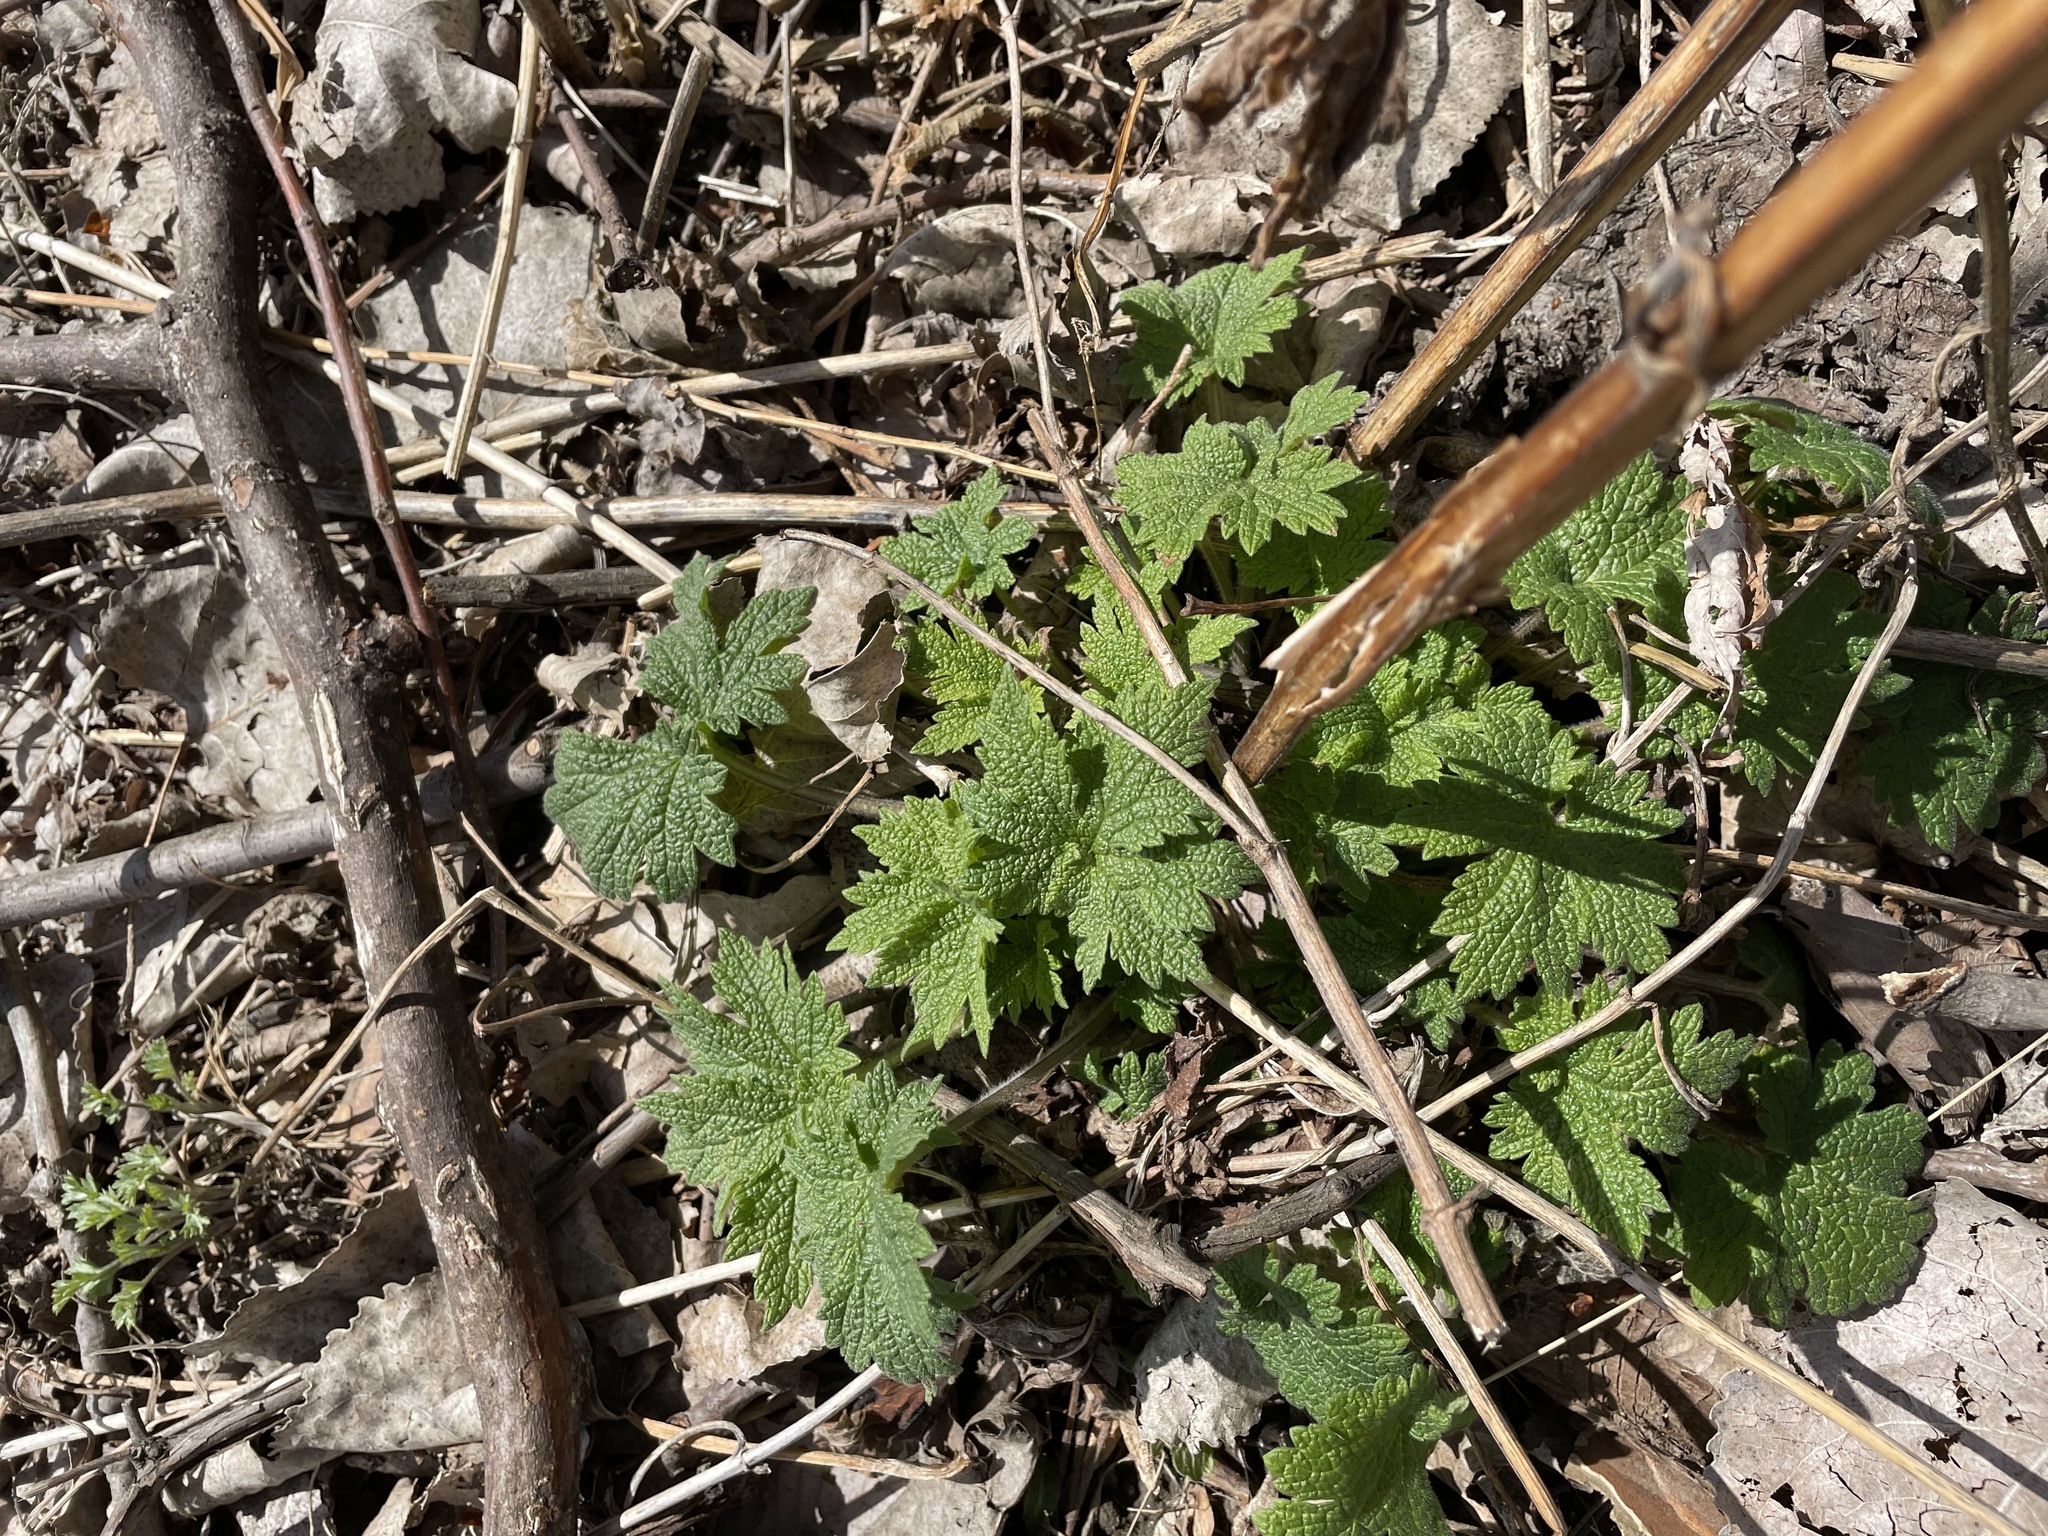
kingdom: Plantae
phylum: Tracheophyta
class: Magnoliopsida
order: Lamiales
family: Lamiaceae
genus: Leonurus
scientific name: Leonurus cardiaca
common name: Motherwort
